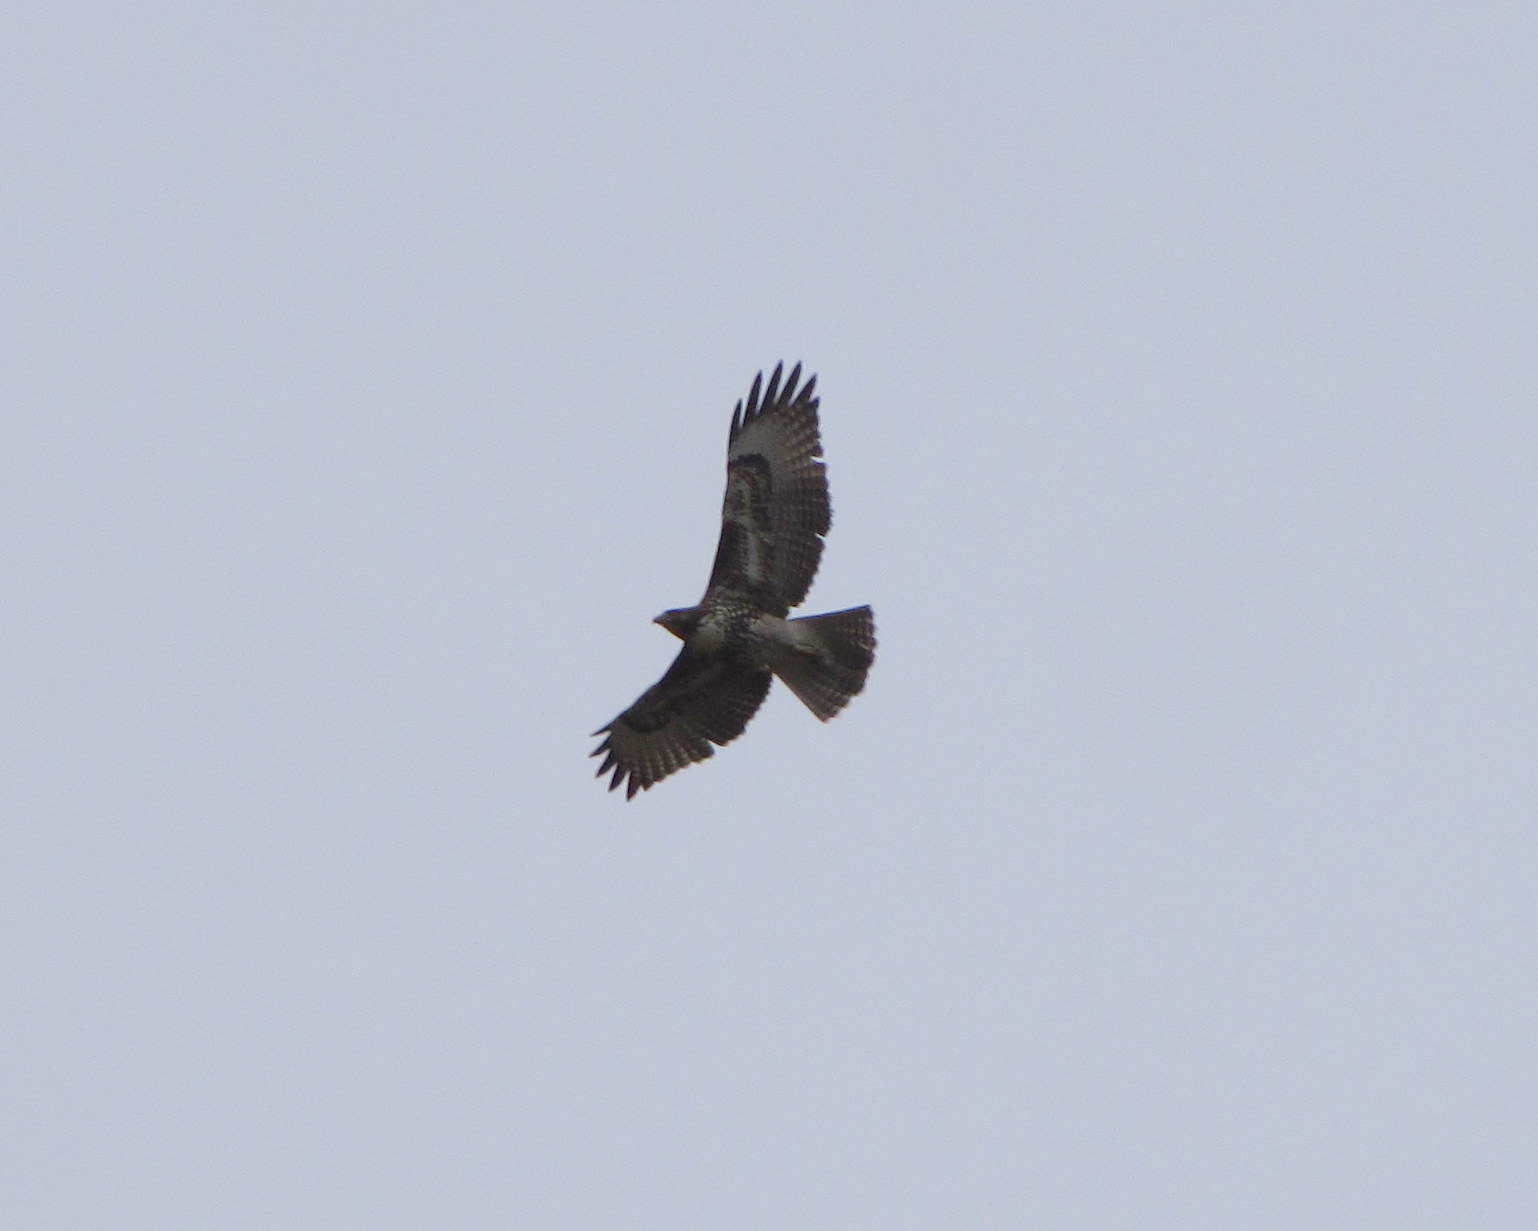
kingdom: Animalia
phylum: Chordata
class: Aves
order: Accipitriformes
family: Accipitridae
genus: Buteo
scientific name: Buteo jamaicensis
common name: Red-tailed hawk
